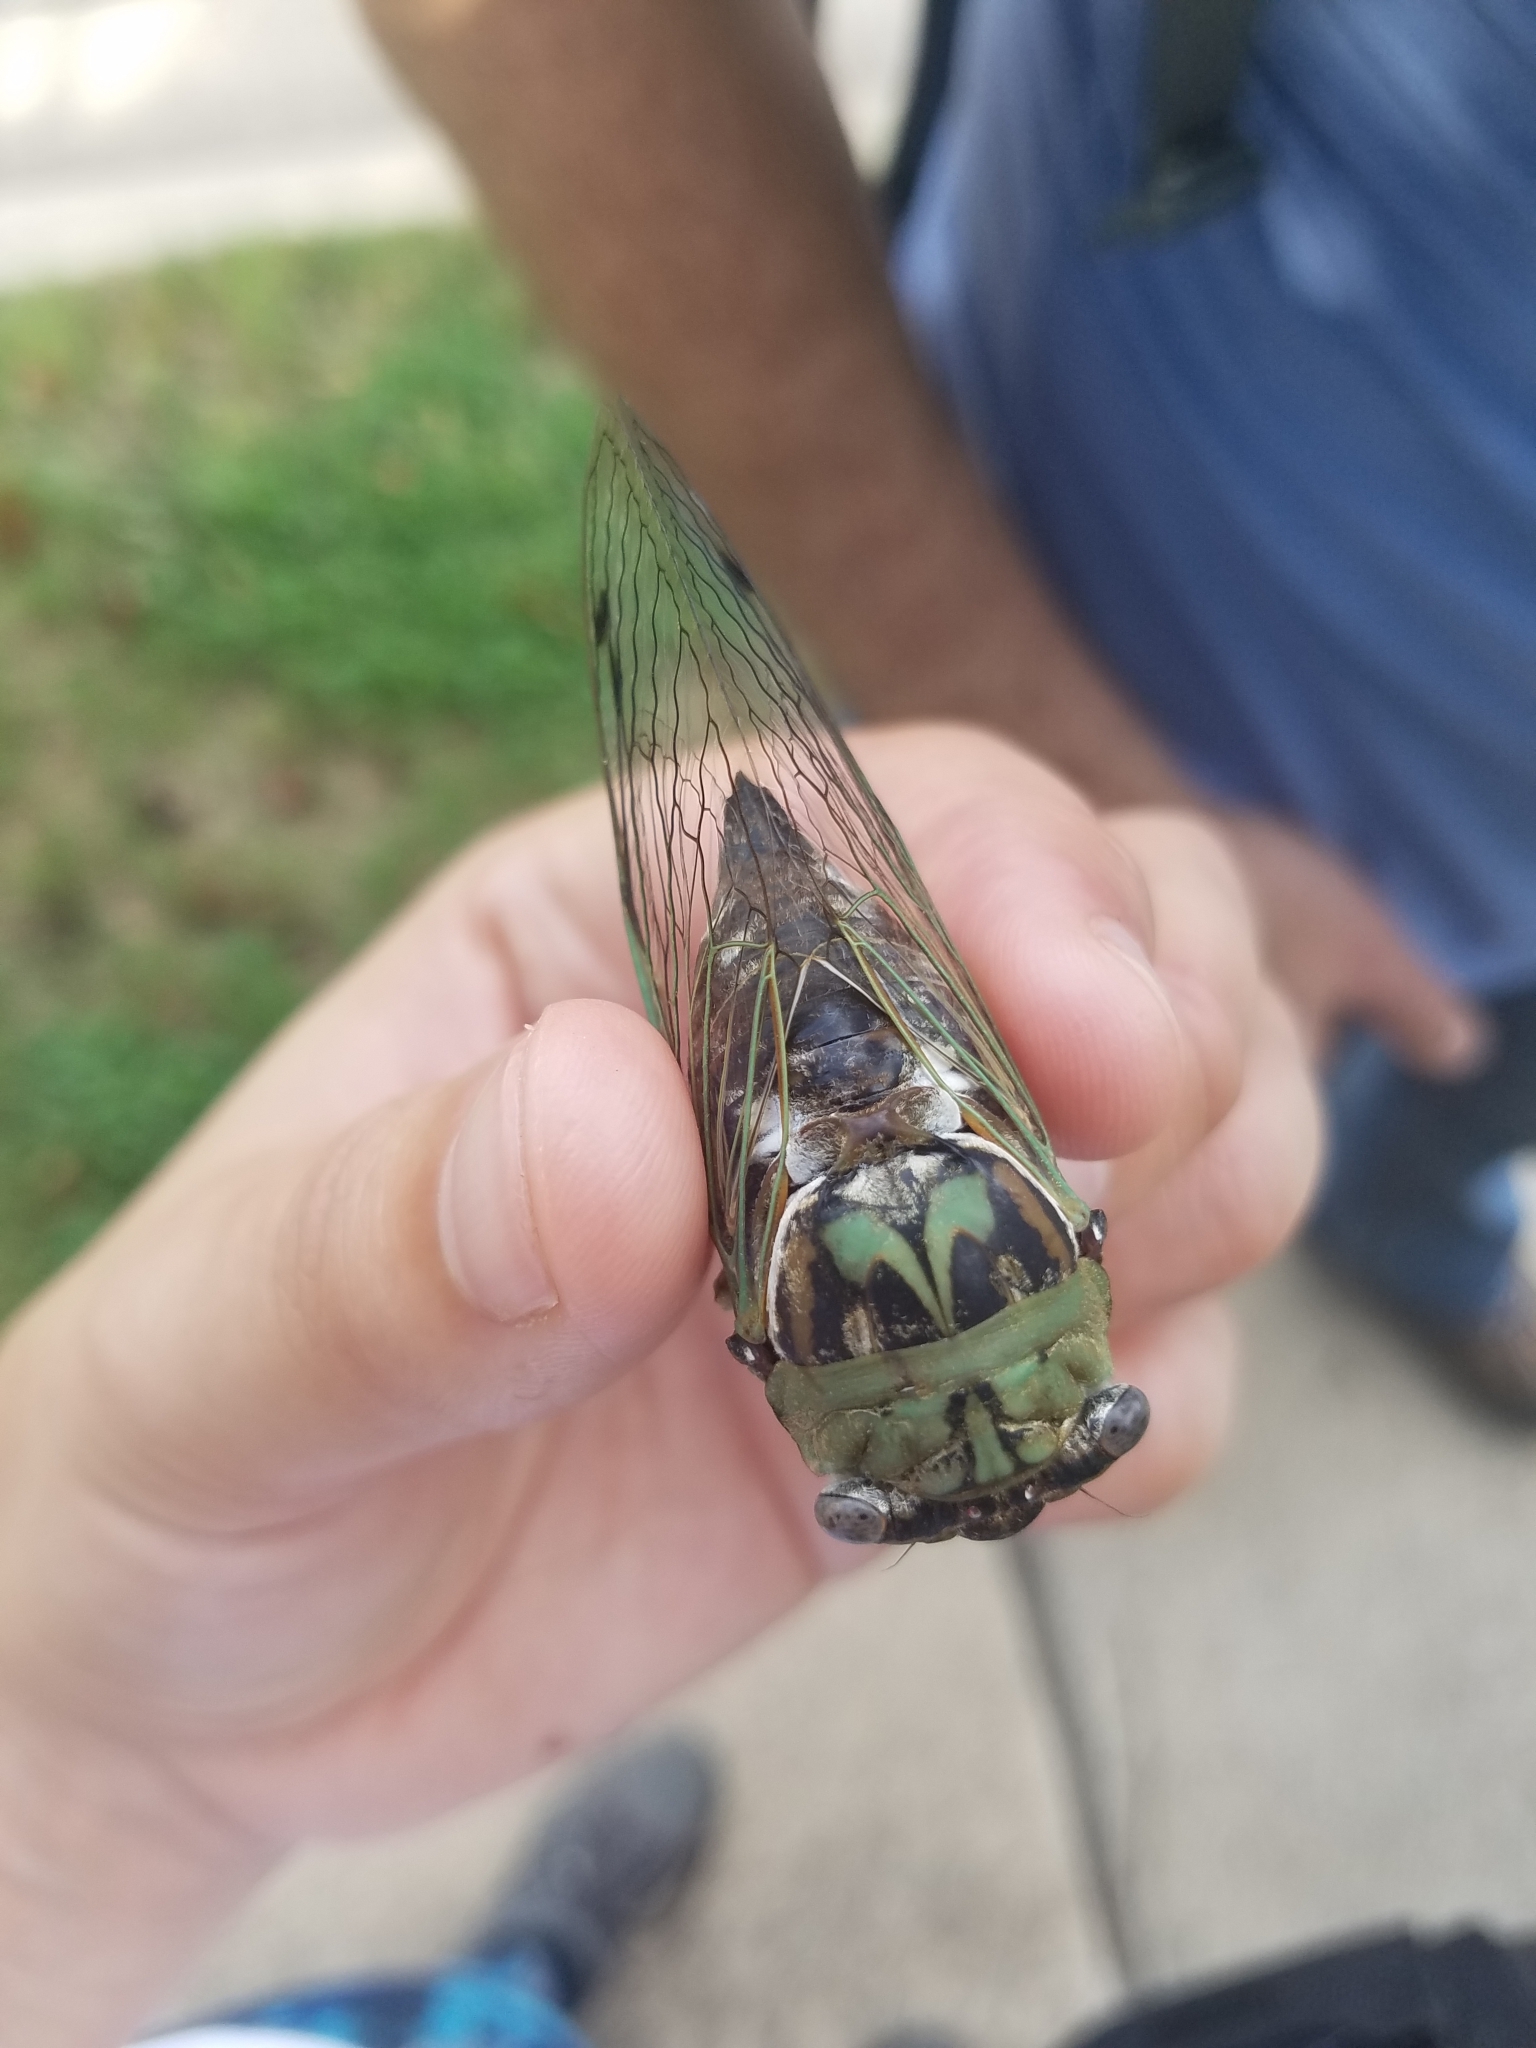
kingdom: Animalia
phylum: Arthropoda
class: Insecta
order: Hemiptera
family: Cicadidae
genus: Megatibicen
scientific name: Megatibicen resh
